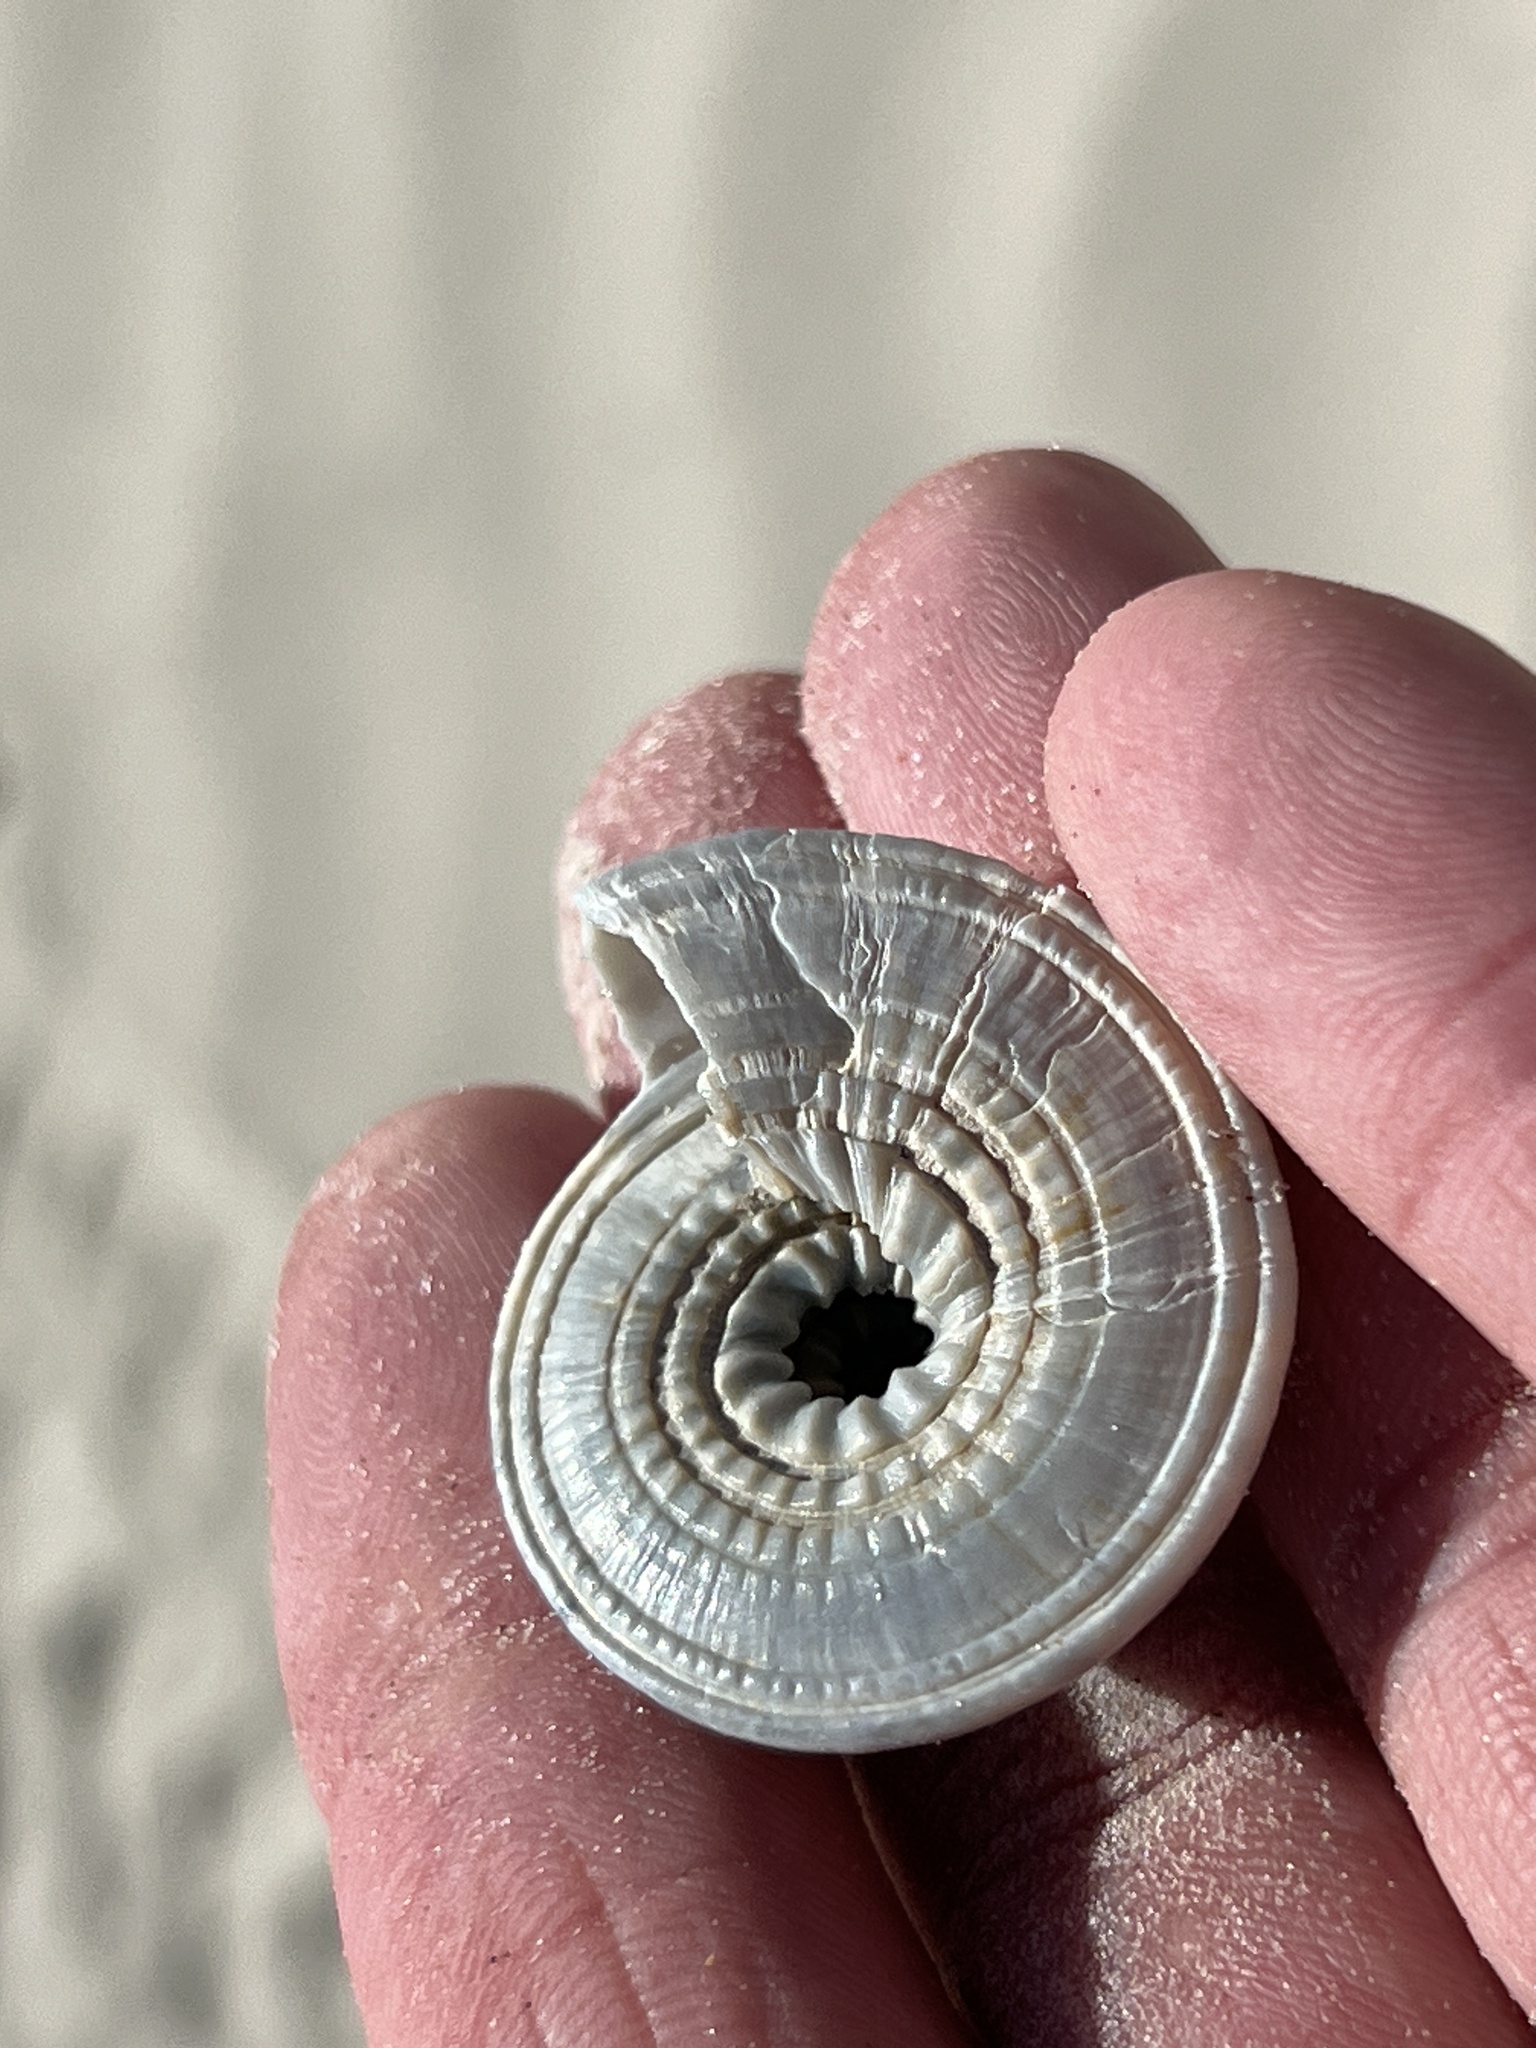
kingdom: Animalia
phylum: Mollusca
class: Gastropoda
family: Architectonicidae
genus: Architectonica
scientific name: Architectonica nobilis
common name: Common sundial
